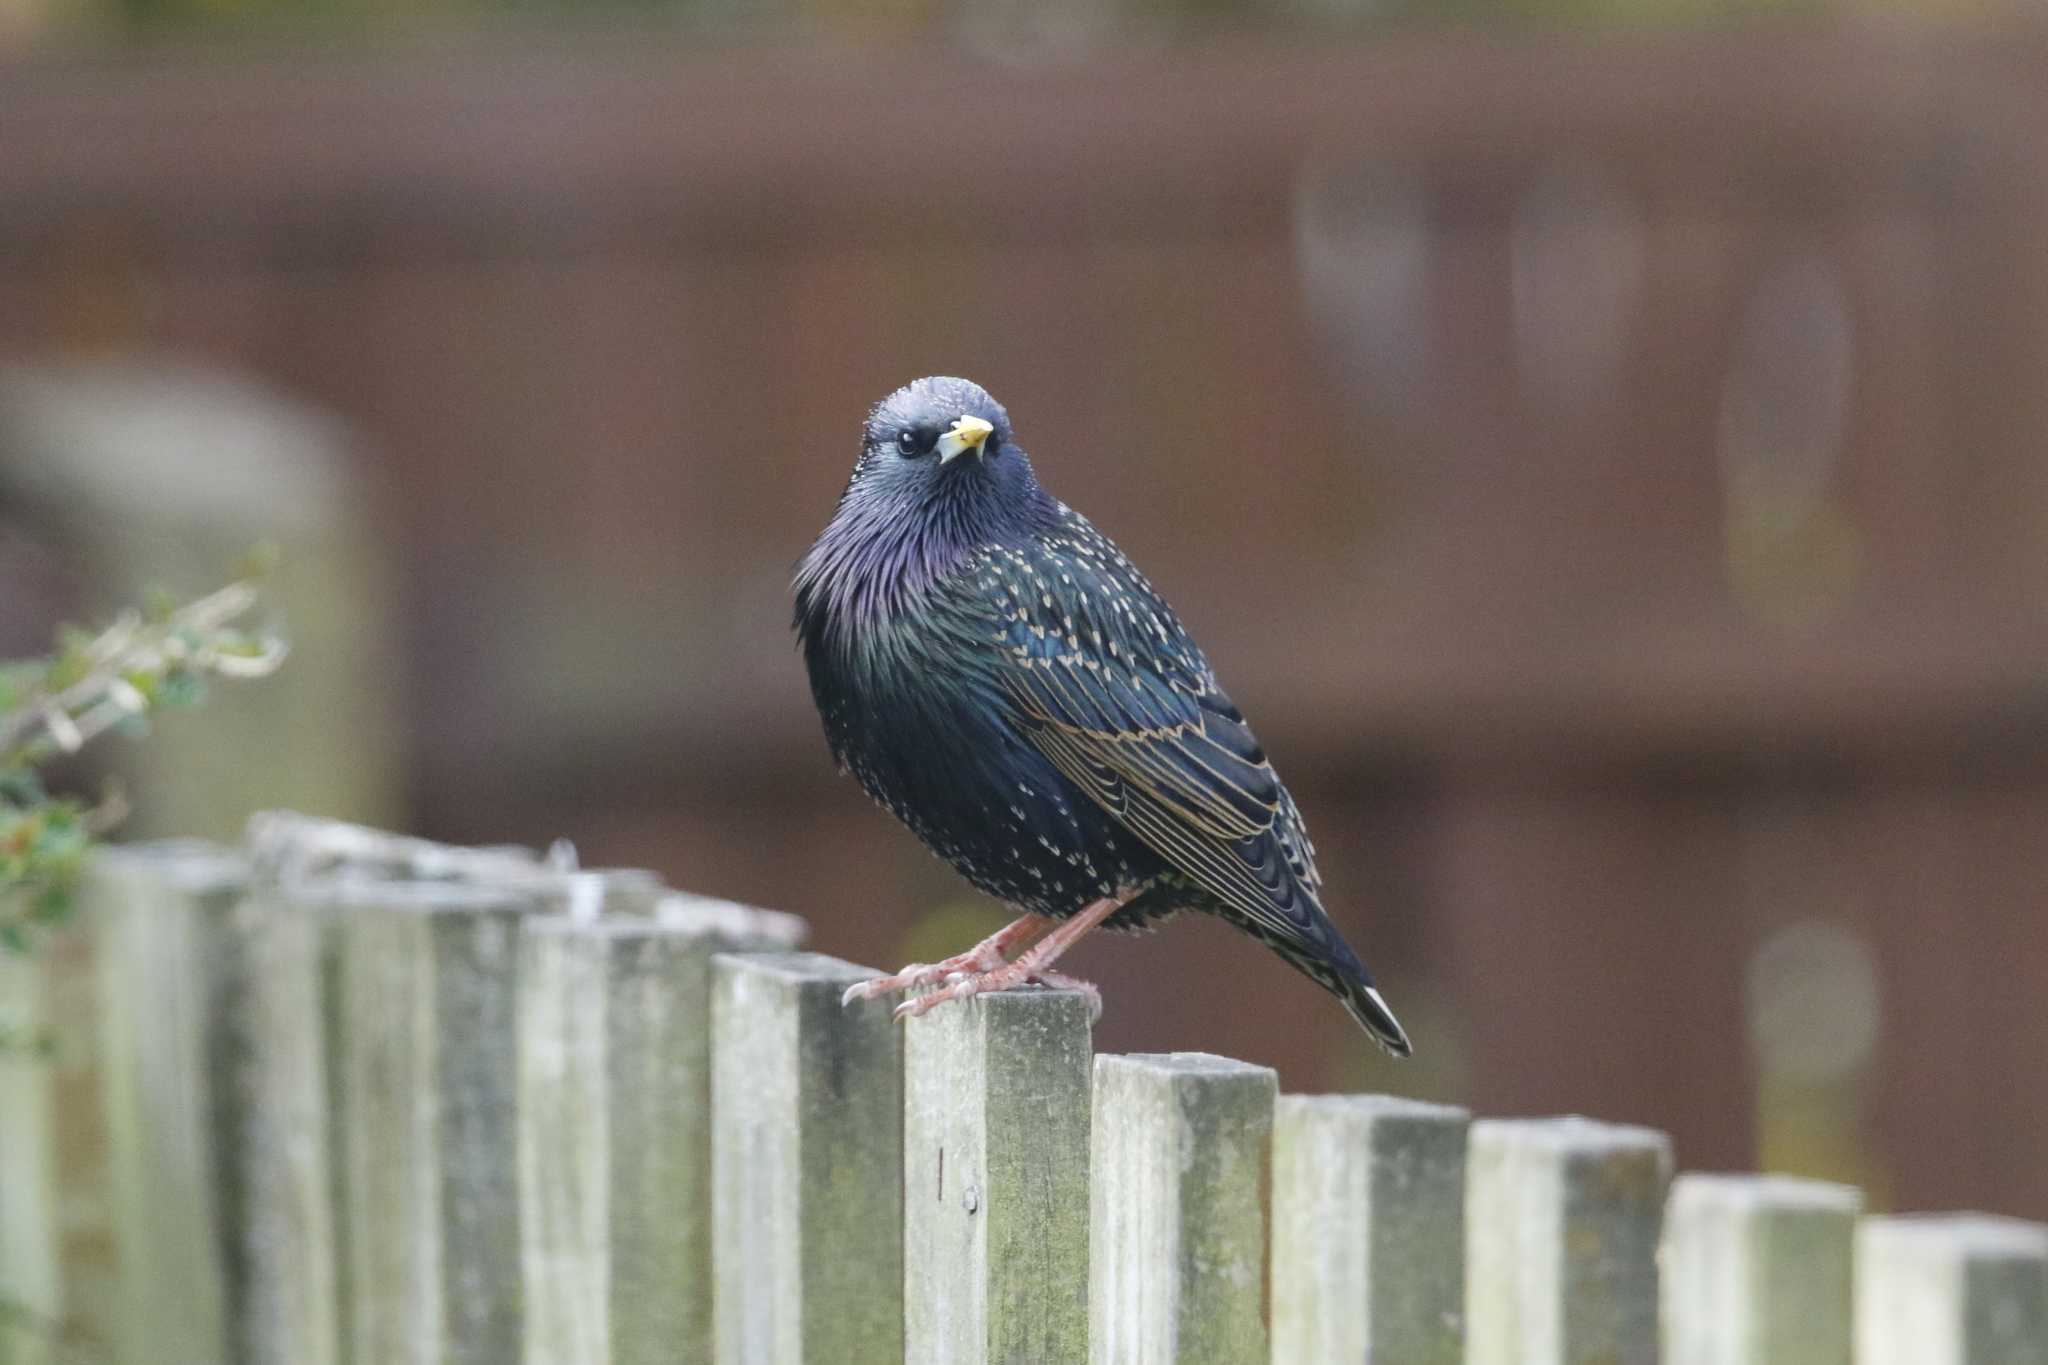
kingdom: Animalia
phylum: Chordata
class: Aves
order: Passeriformes
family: Sturnidae
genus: Sturnus
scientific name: Sturnus vulgaris
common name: Common starling
